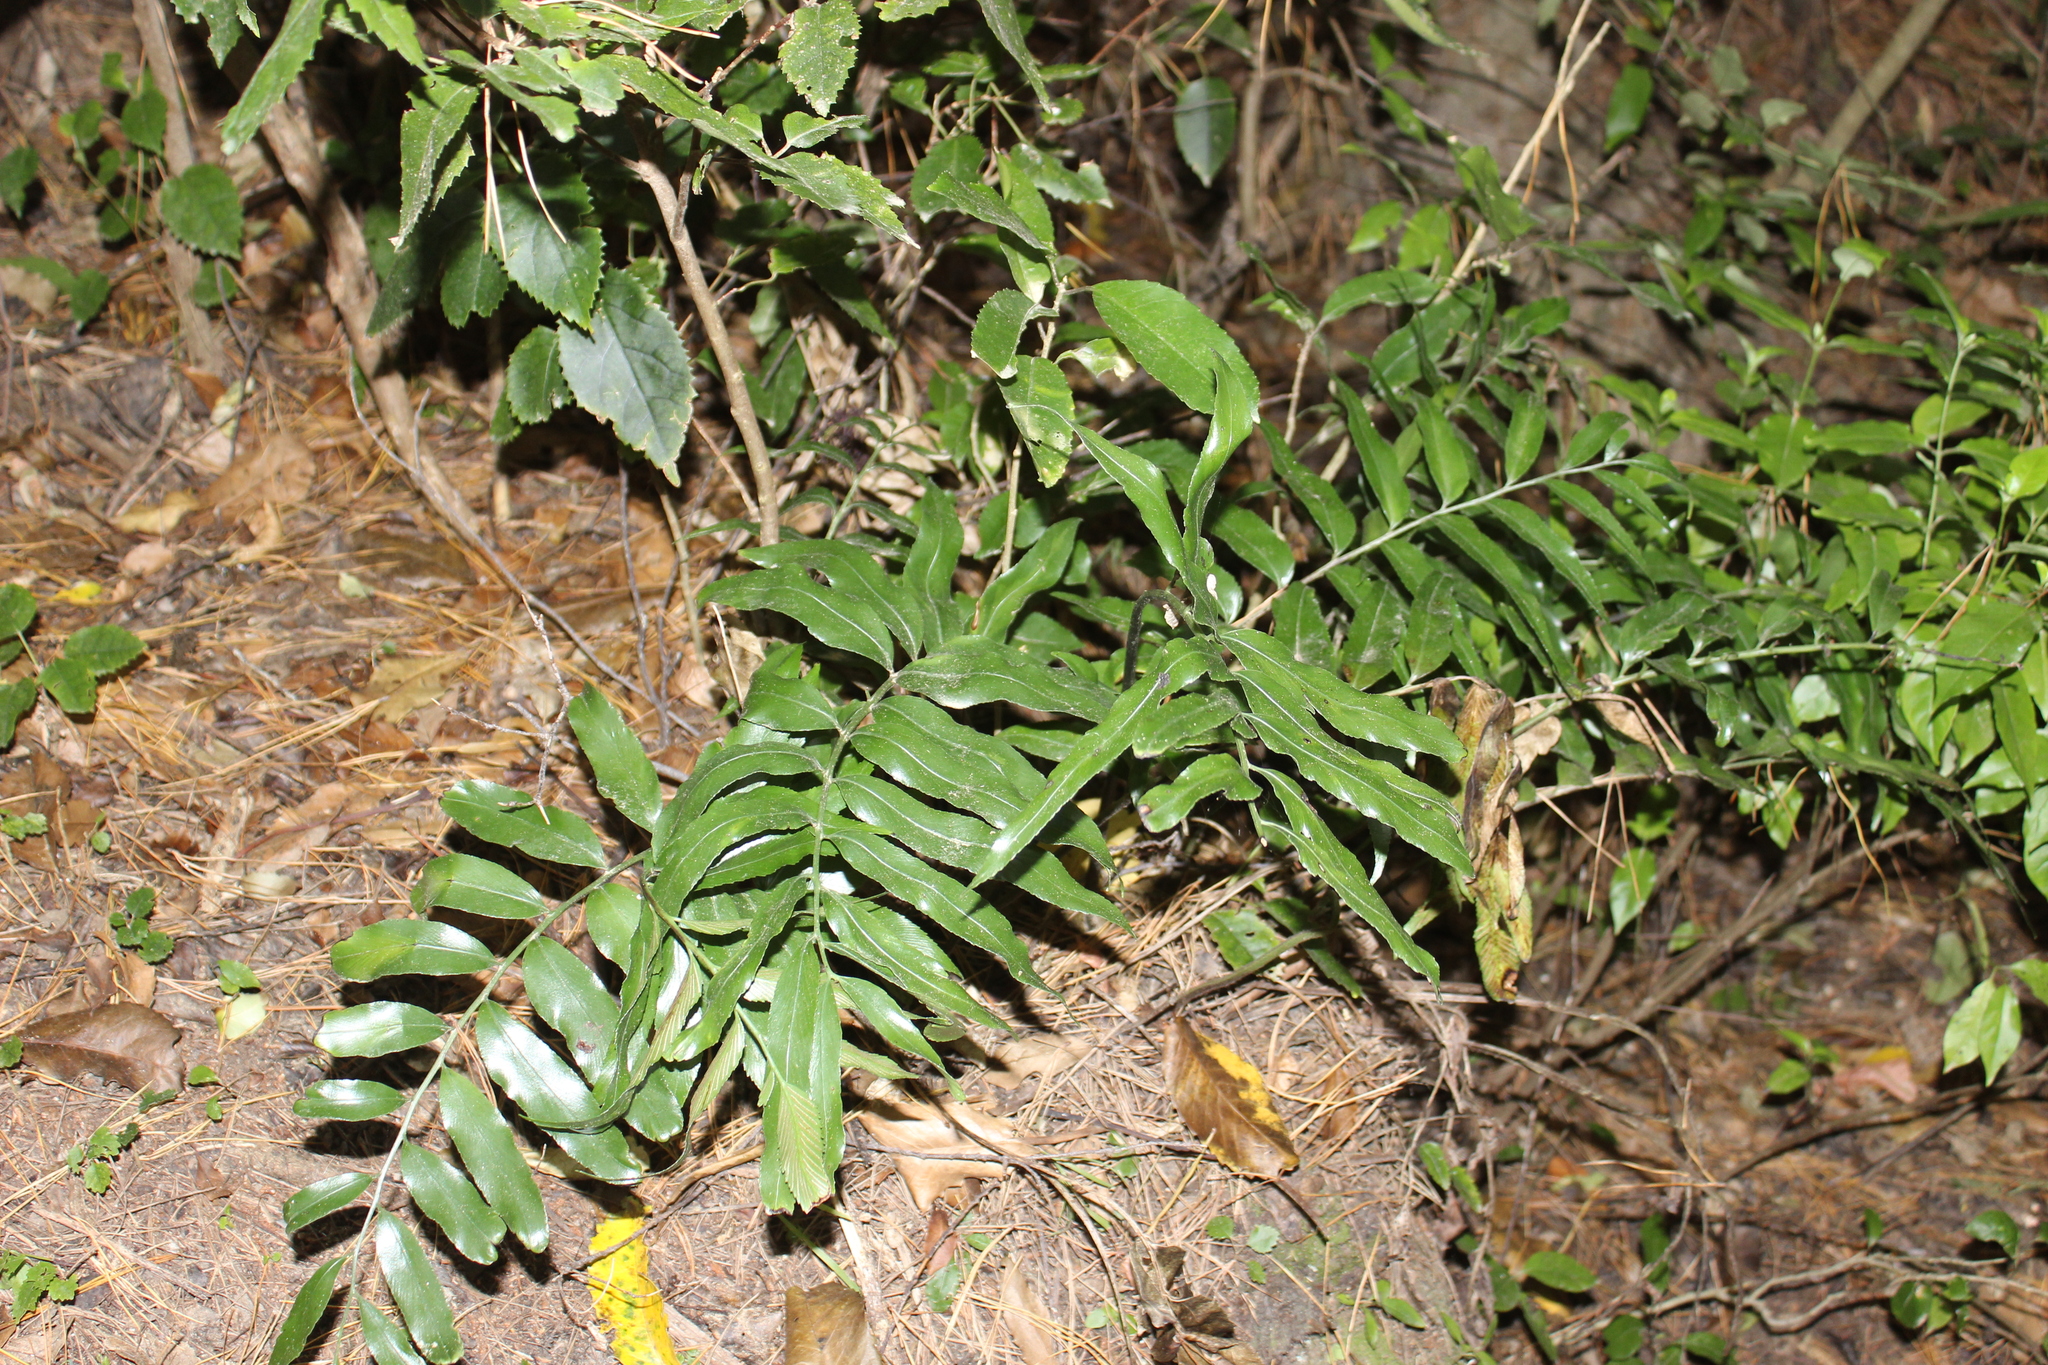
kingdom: Plantae
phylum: Tracheophyta
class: Polypodiopsida
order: Polypodiales
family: Aspleniaceae
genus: Asplenium
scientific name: Asplenium oblongifolium
